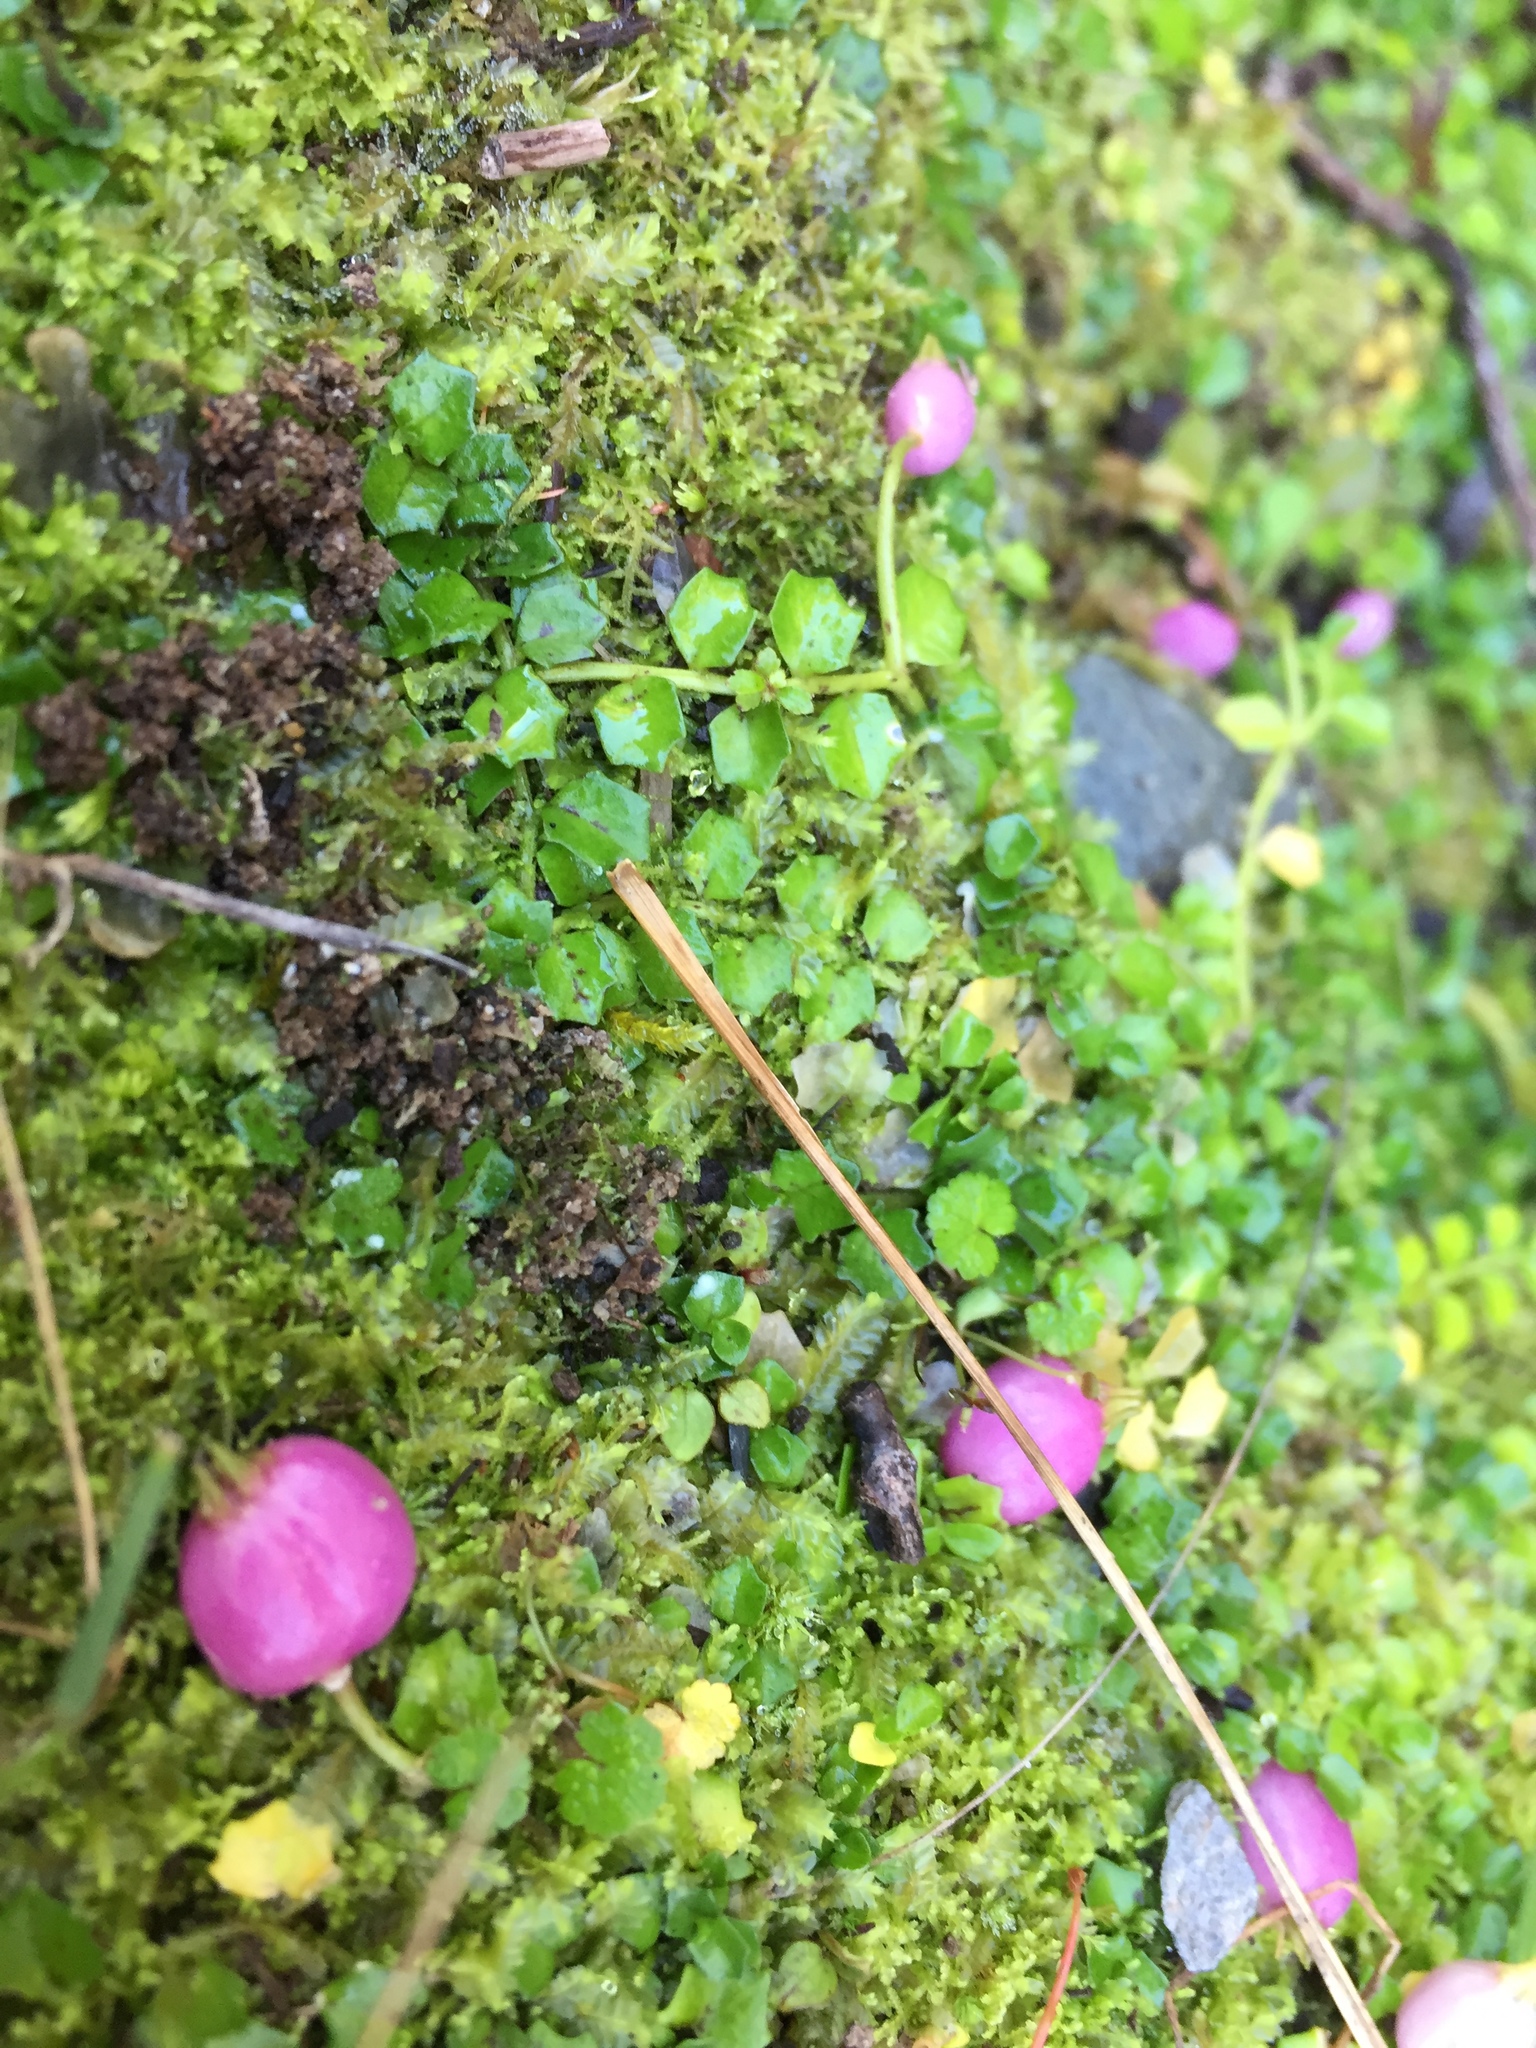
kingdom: Plantae
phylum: Tracheophyta
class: Magnoliopsida
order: Asterales
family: Campanulaceae
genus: Lobelia
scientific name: Lobelia angulata
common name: Lawn lobelia
